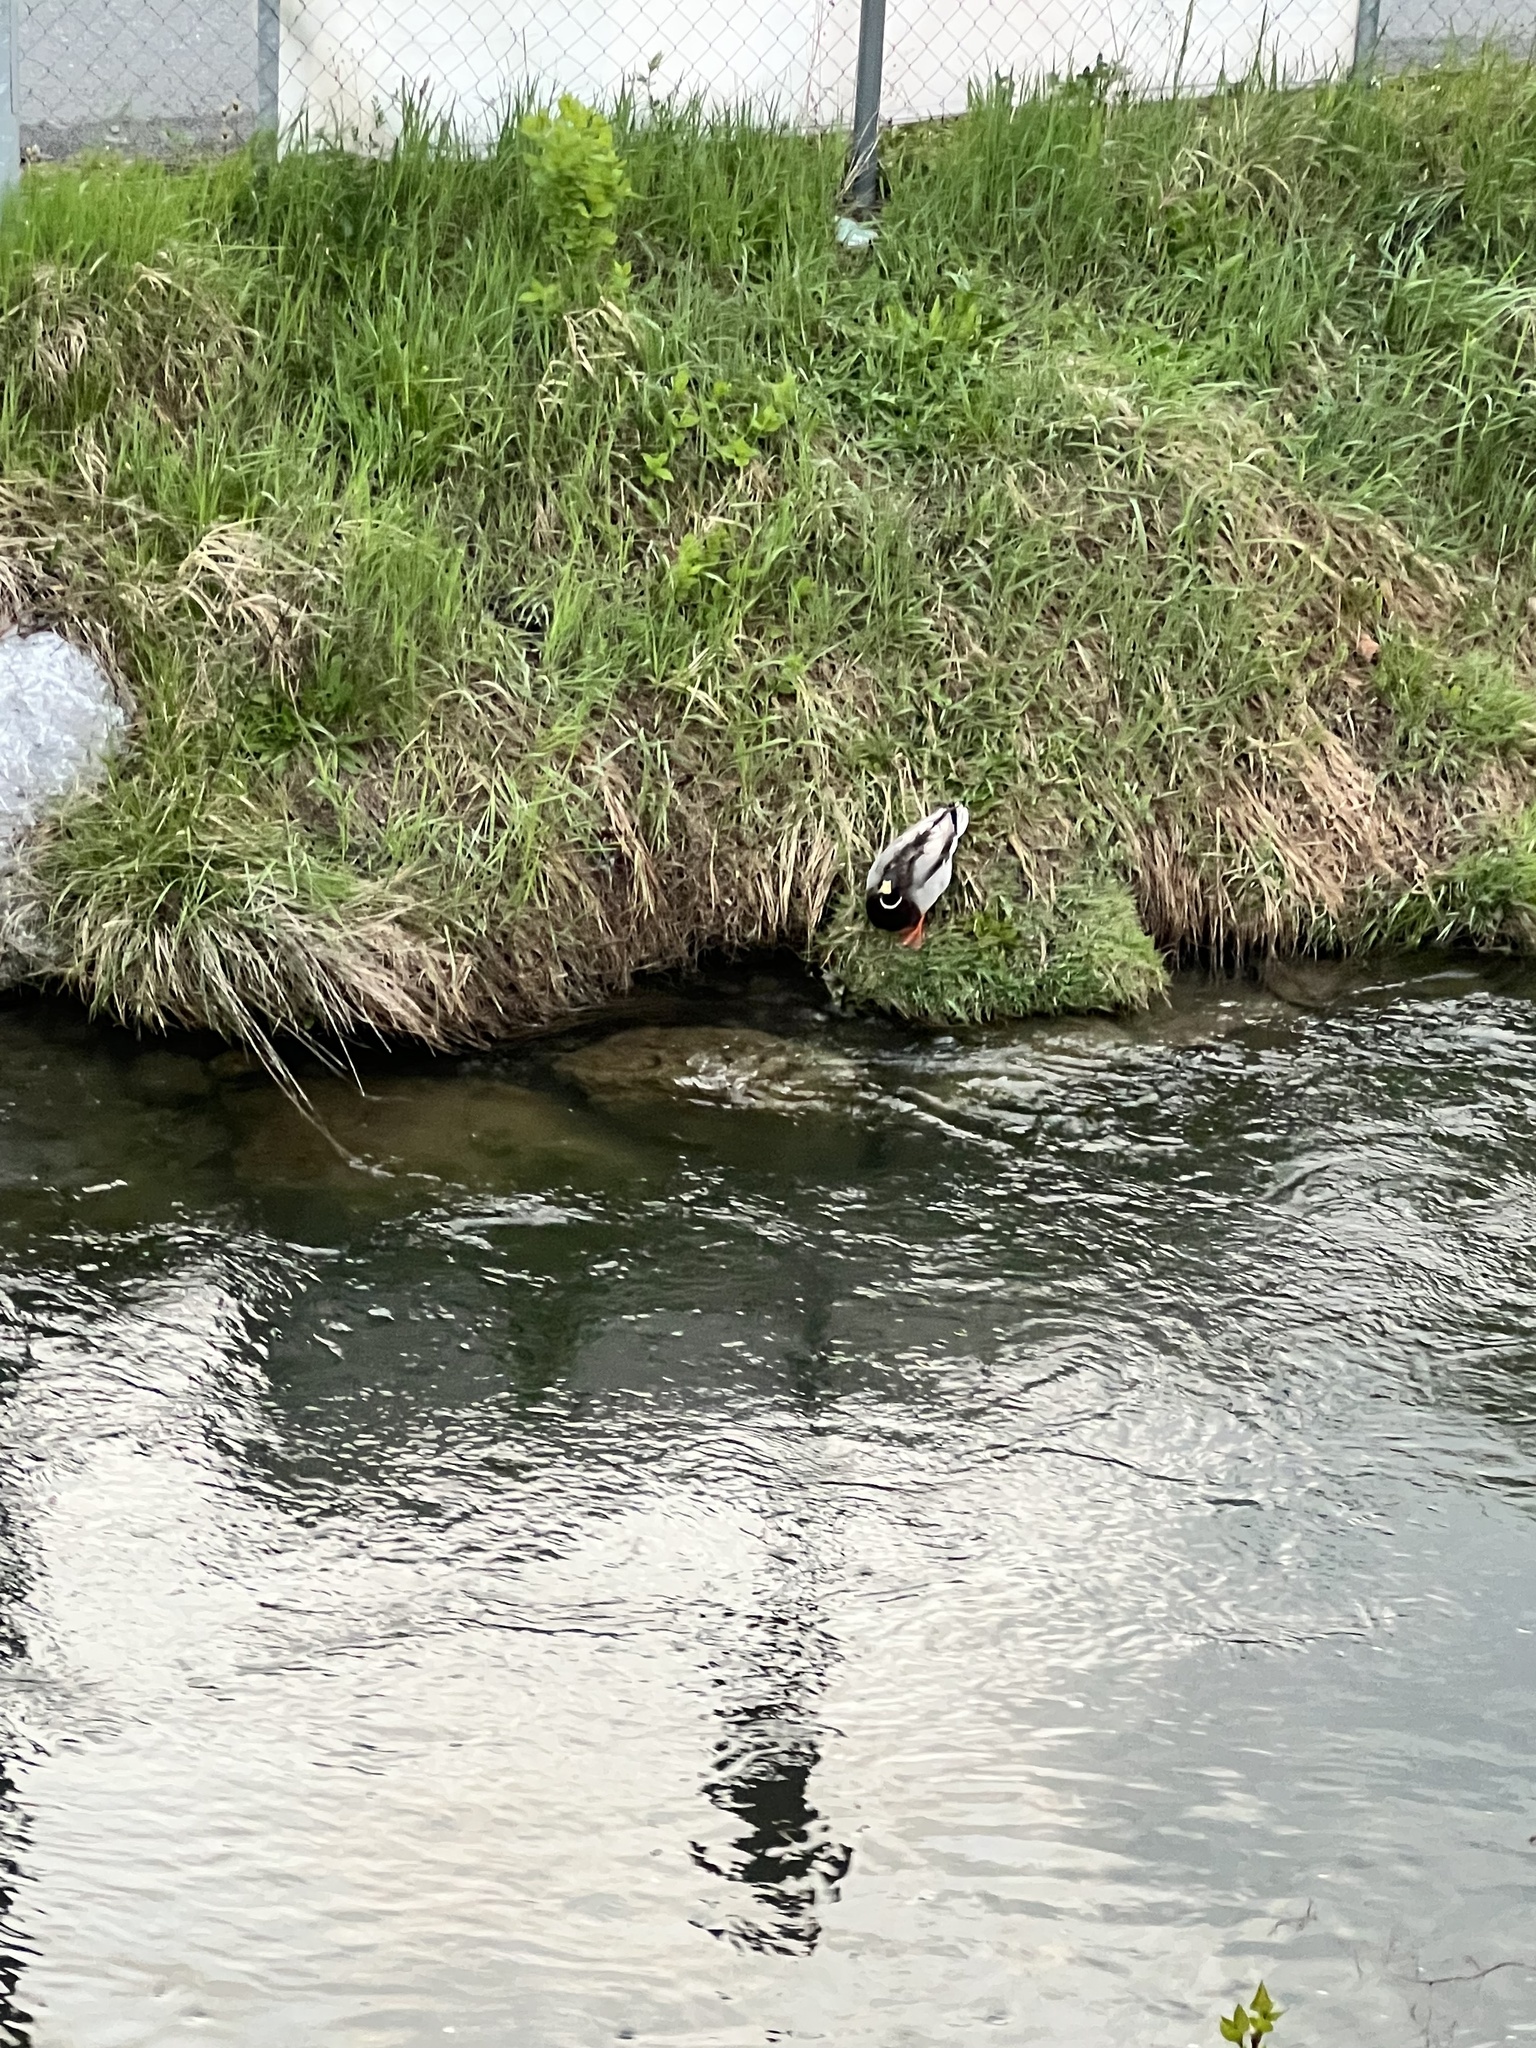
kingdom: Animalia
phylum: Chordata
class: Aves
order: Anseriformes
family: Anatidae
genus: Anas
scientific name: Anas platyrhynchos
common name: Mallard
